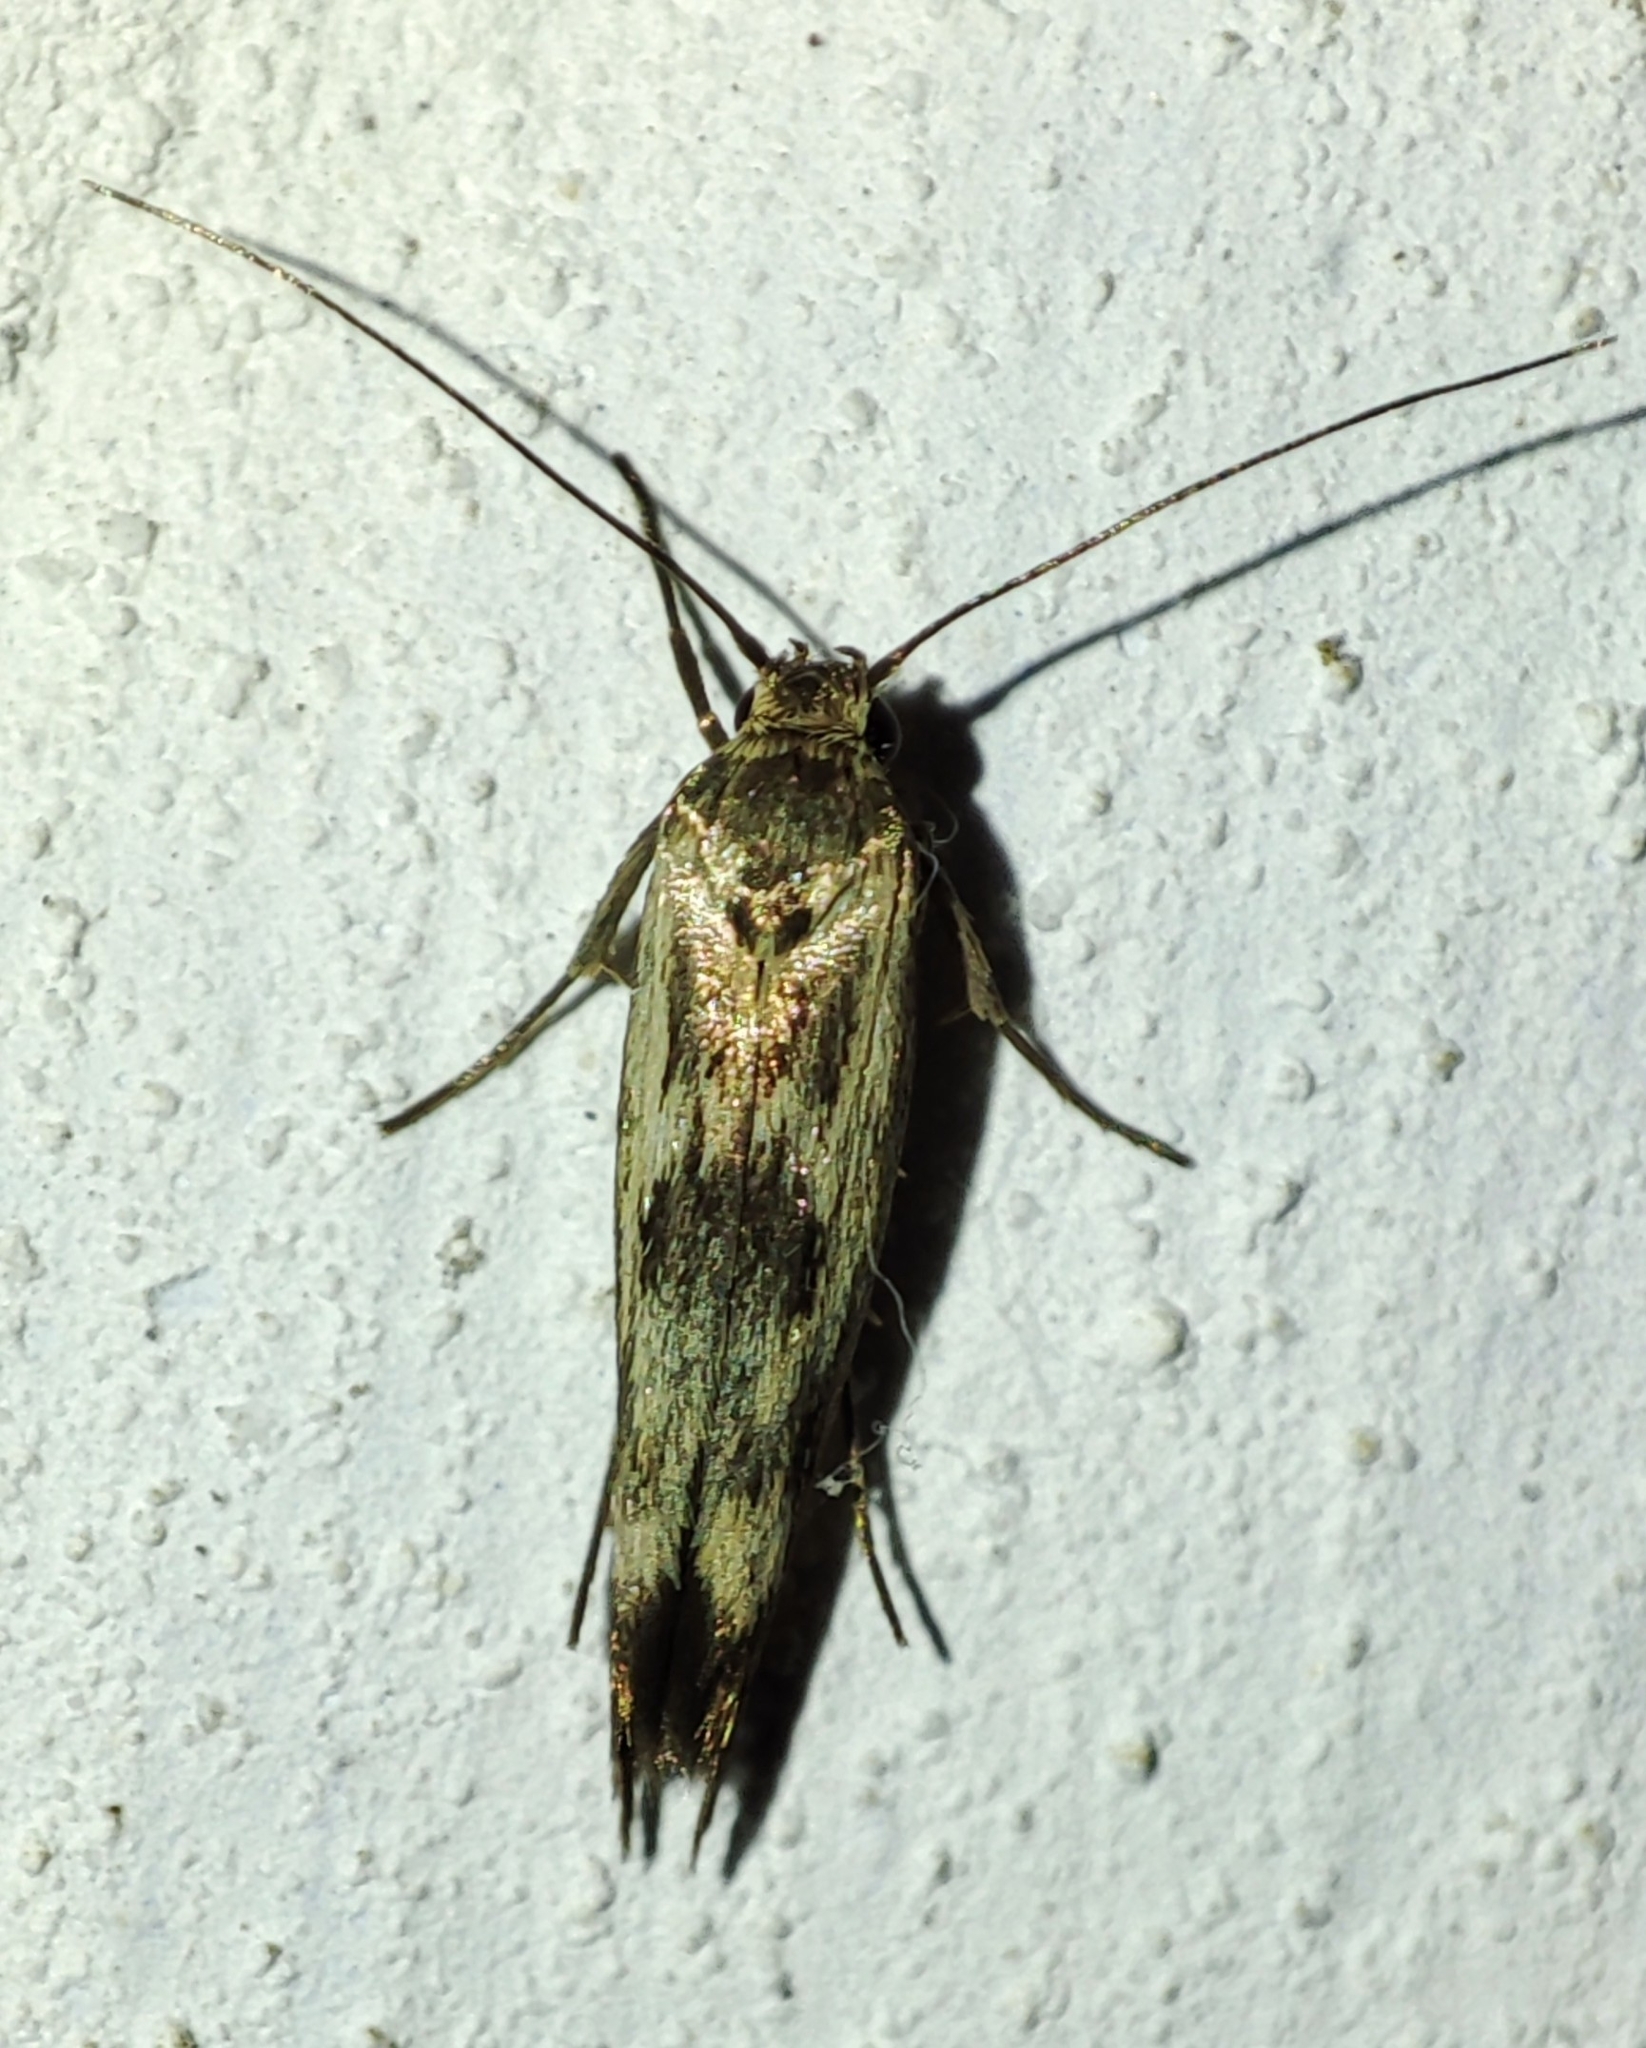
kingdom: Animalia
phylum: Arthropoda
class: Insecta
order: Lepidoptera
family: Scythrididae
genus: Scythris
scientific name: Scythris limbella
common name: Goosefoot owlet
